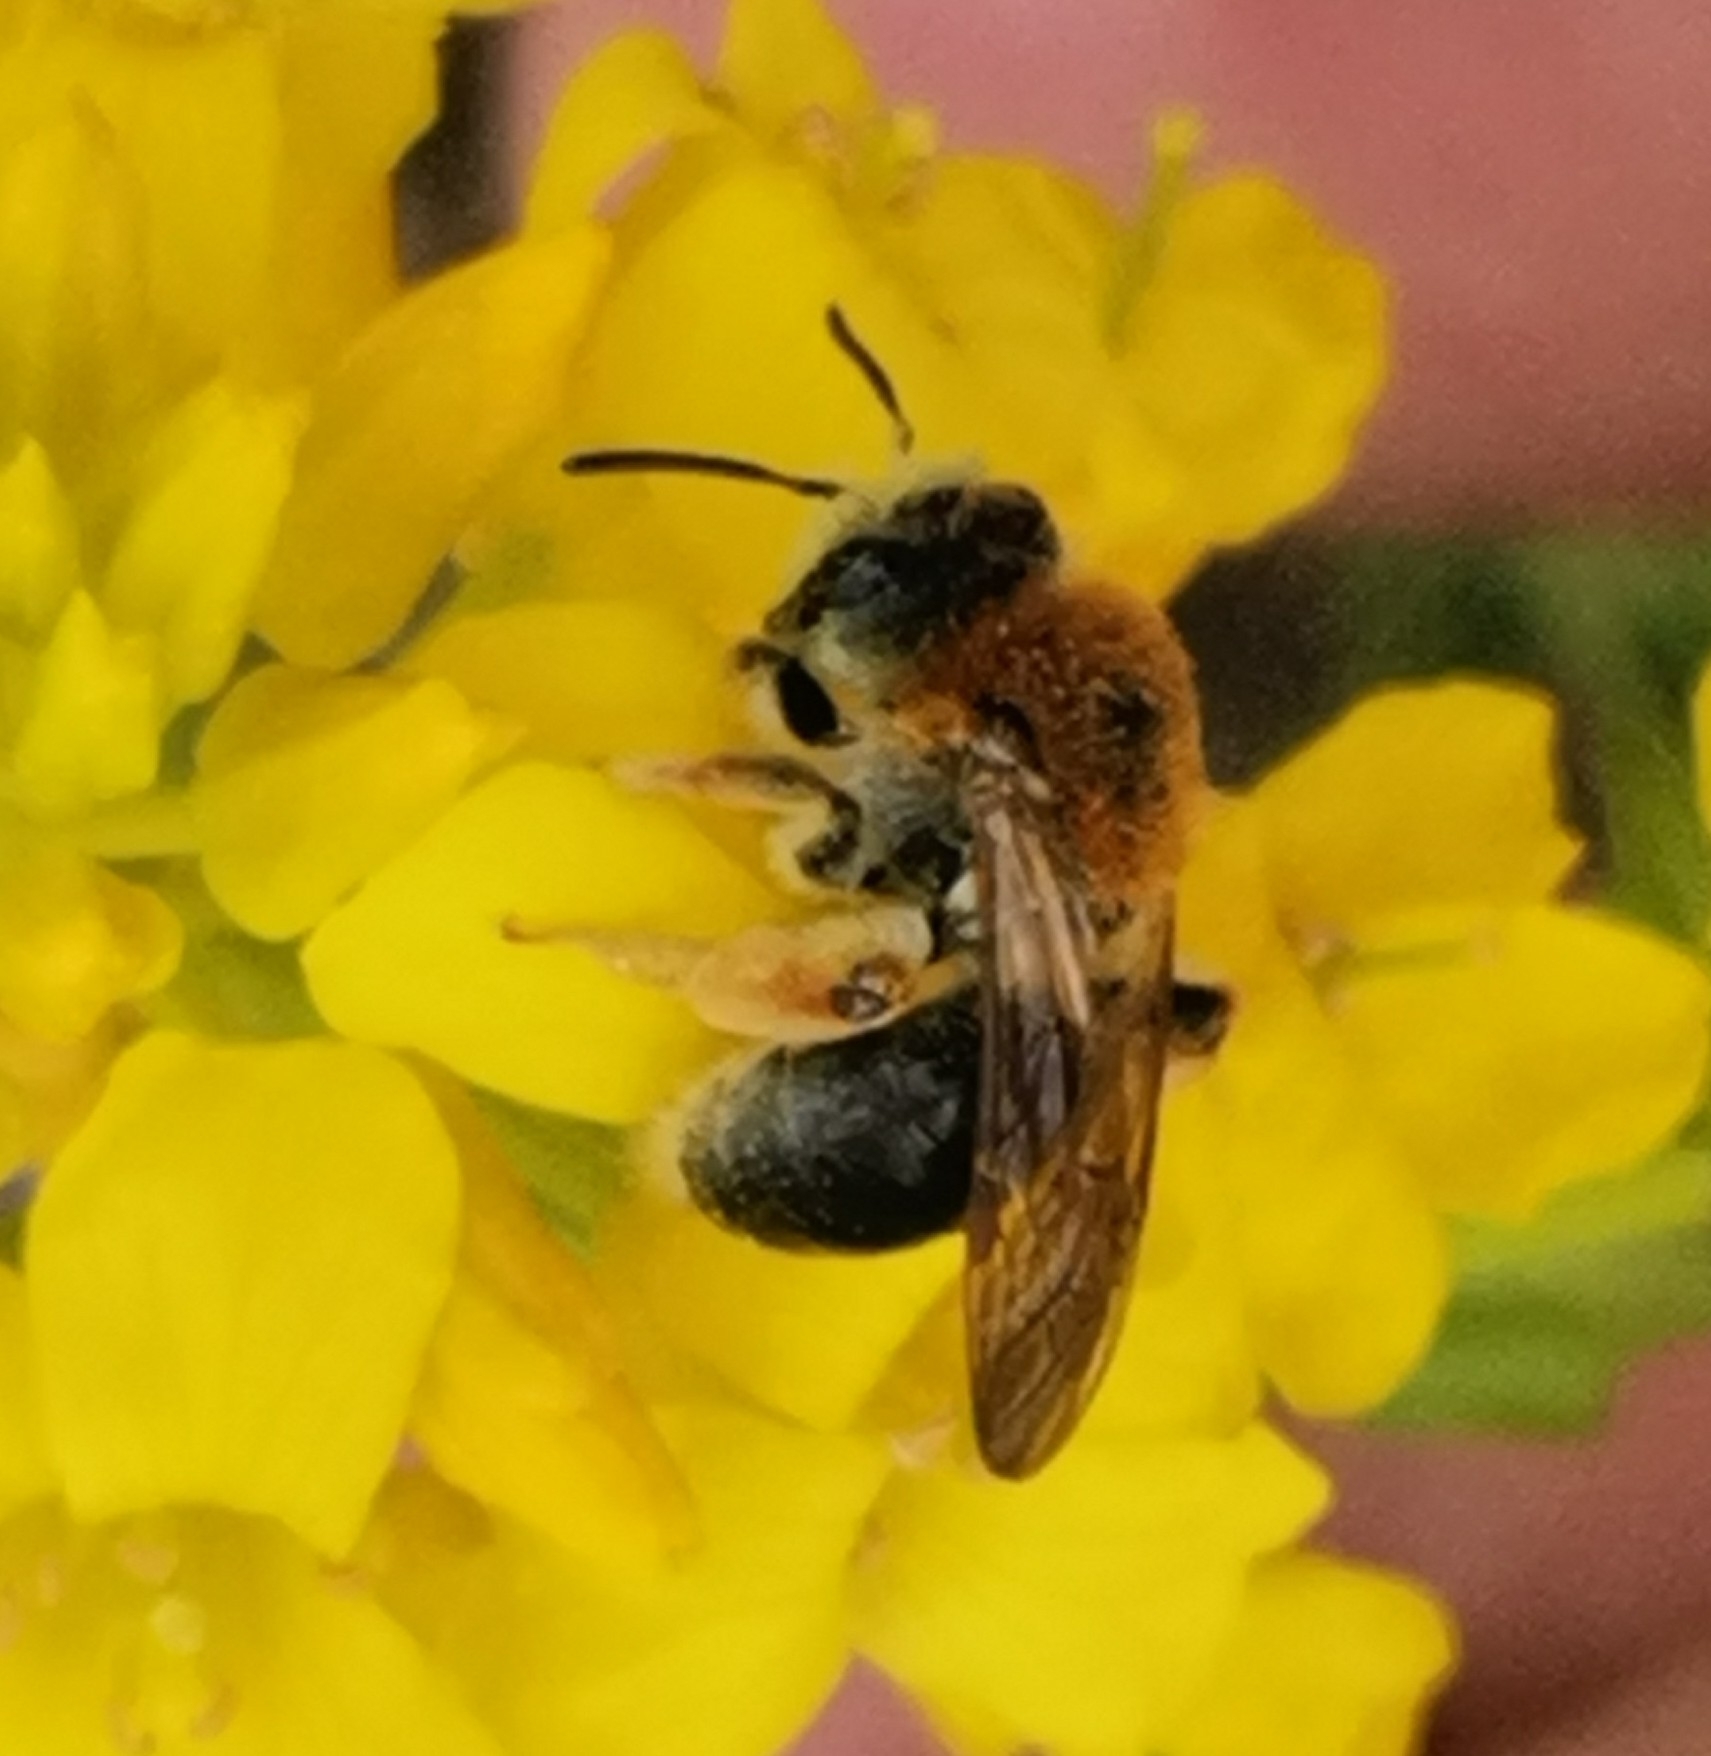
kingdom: Animalia
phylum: Arthropoda
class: Insecta
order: Hymenoptera
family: Andrenidae
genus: Andrena
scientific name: Andrena haemorrhoa
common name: Early mining bee
